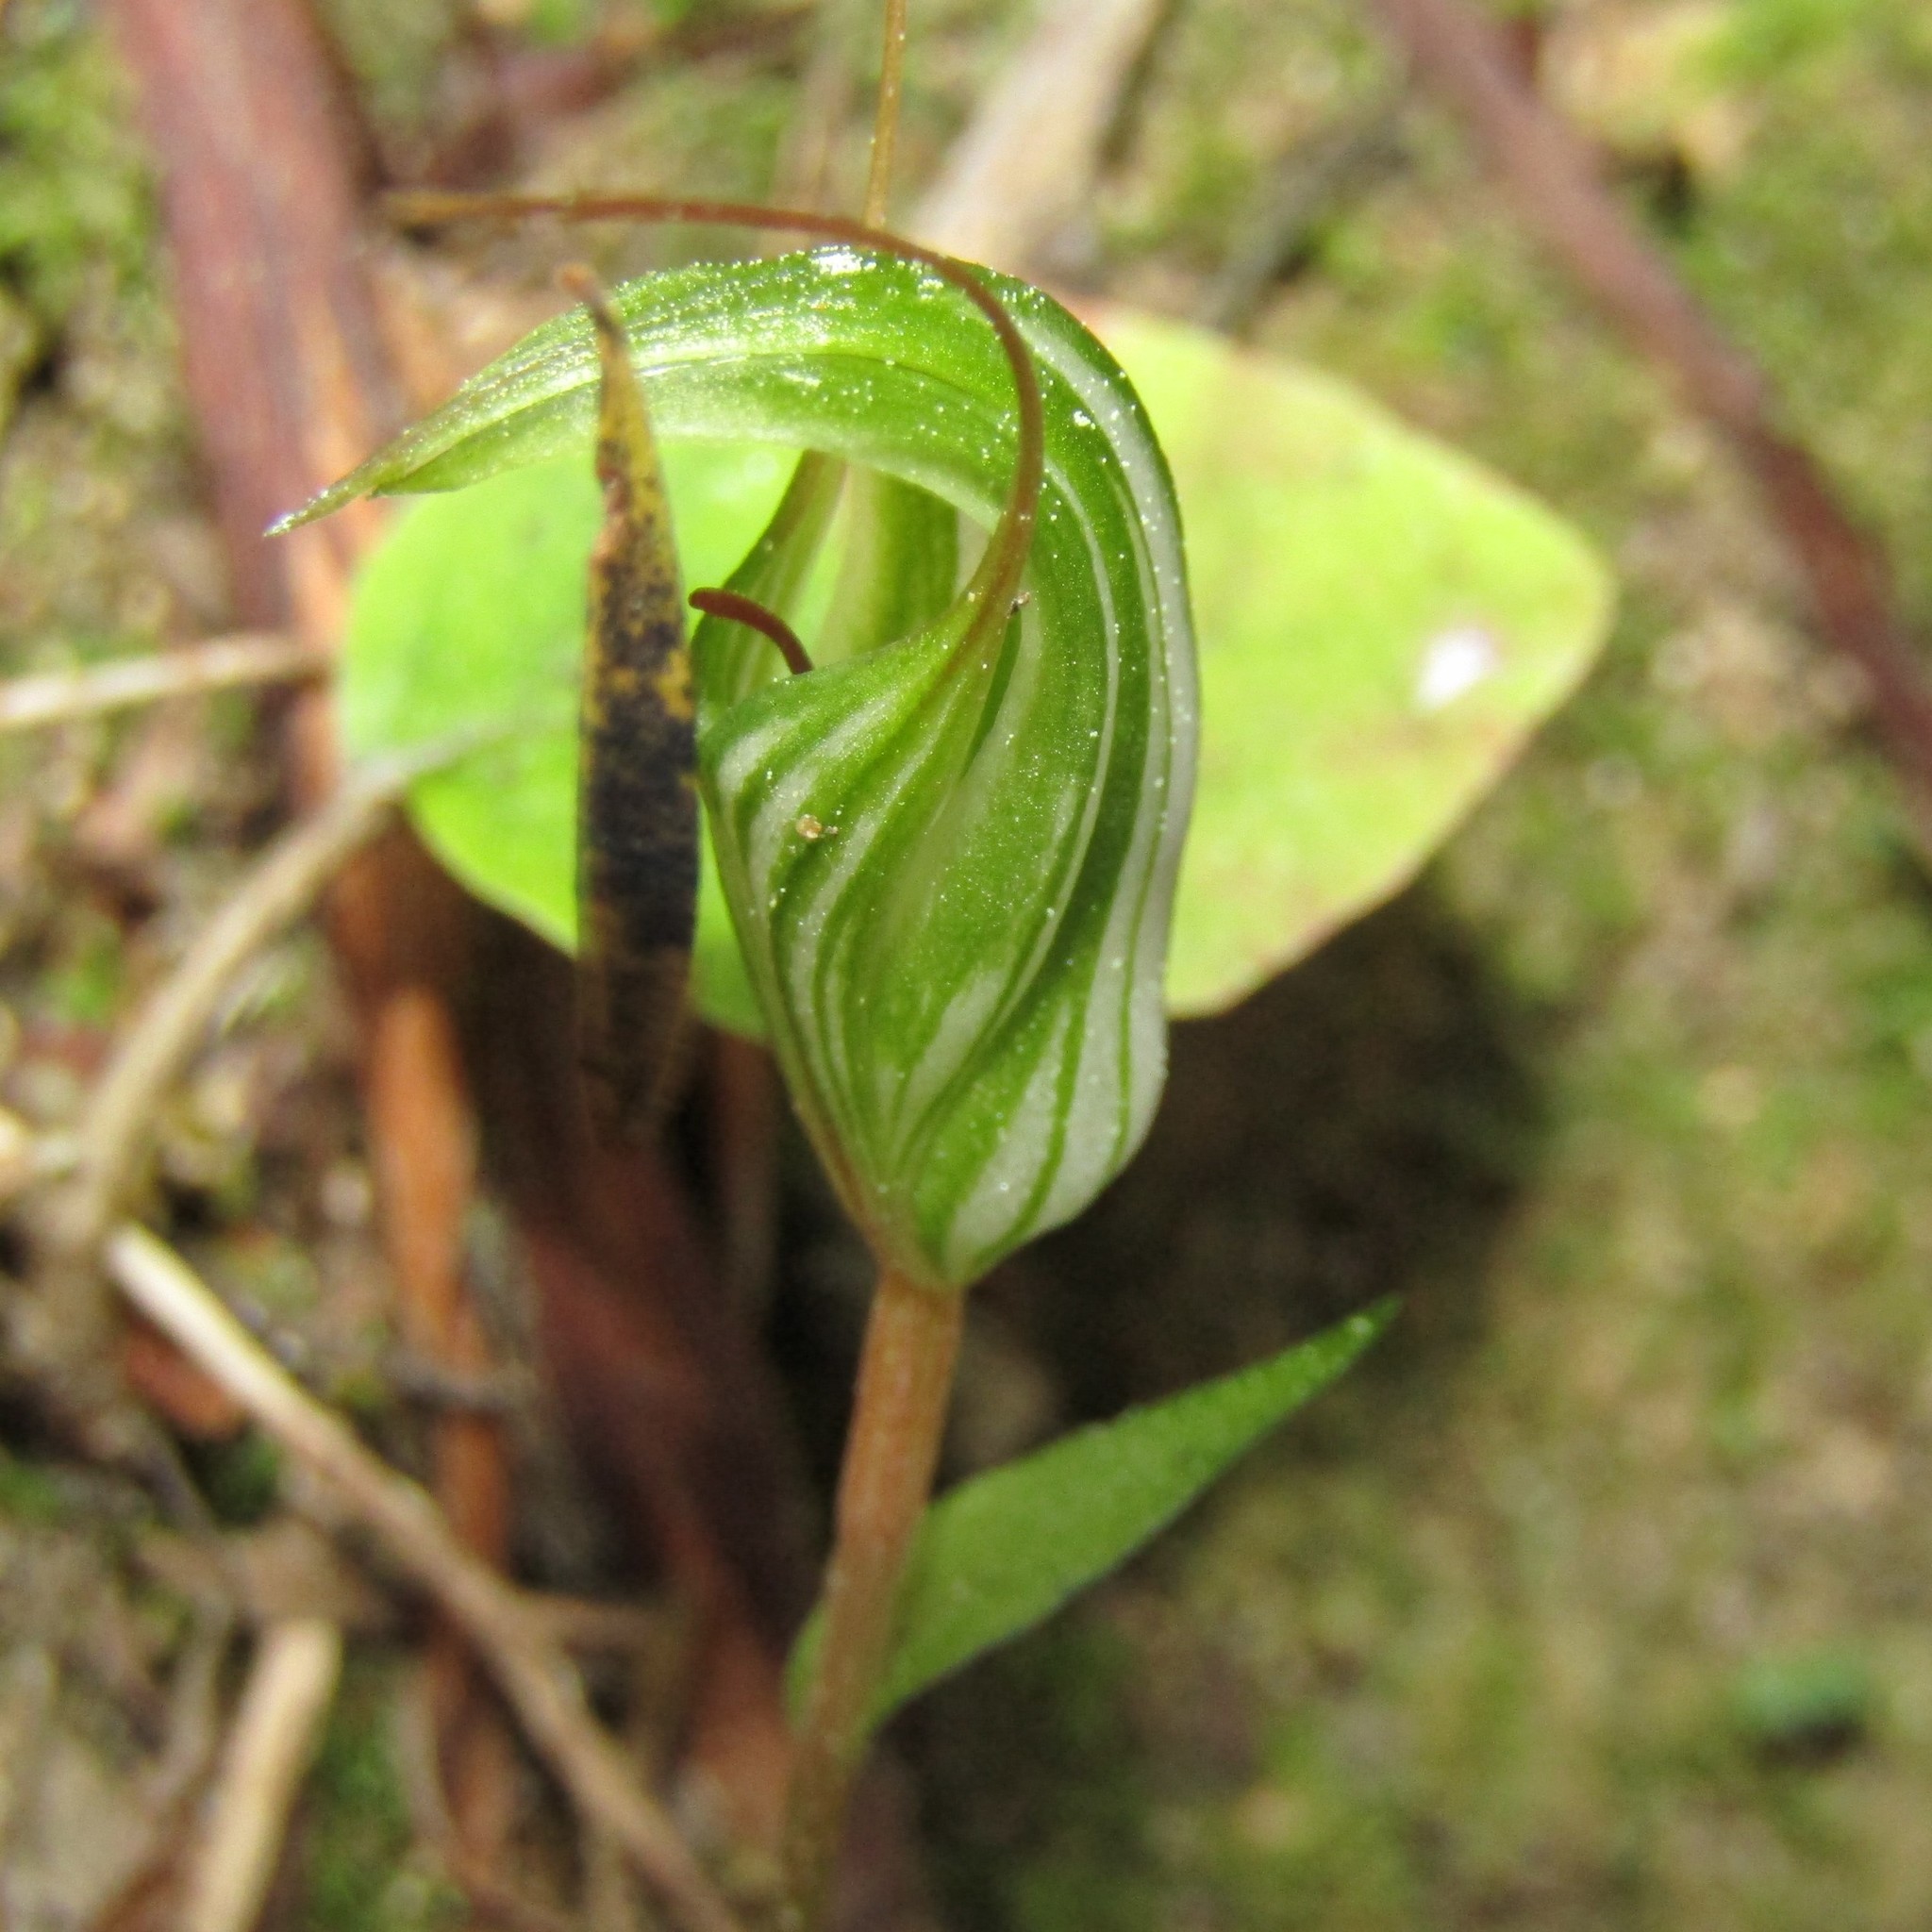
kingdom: Plantae
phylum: Tracheophyta
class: Liliopsida
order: Asparagales
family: Orchidaceae
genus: Pterostylis
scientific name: Pterostylis alobula
